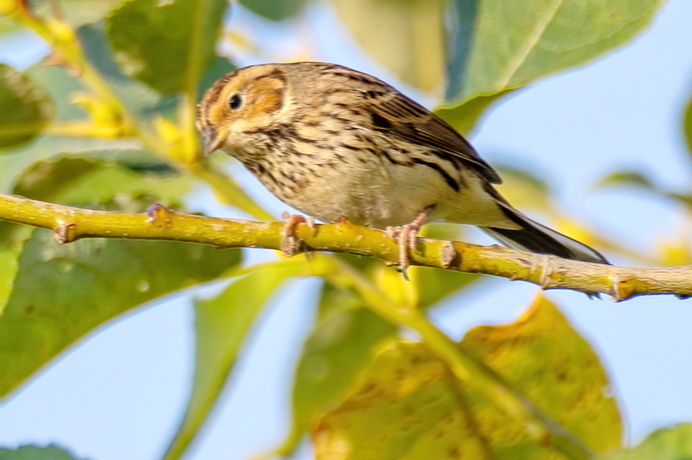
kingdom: Animalia
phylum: Chordata
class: Aves
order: Passeriformes
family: Emberizidae
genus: Emberiza
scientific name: Emberiza pusilla
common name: Little bunting
